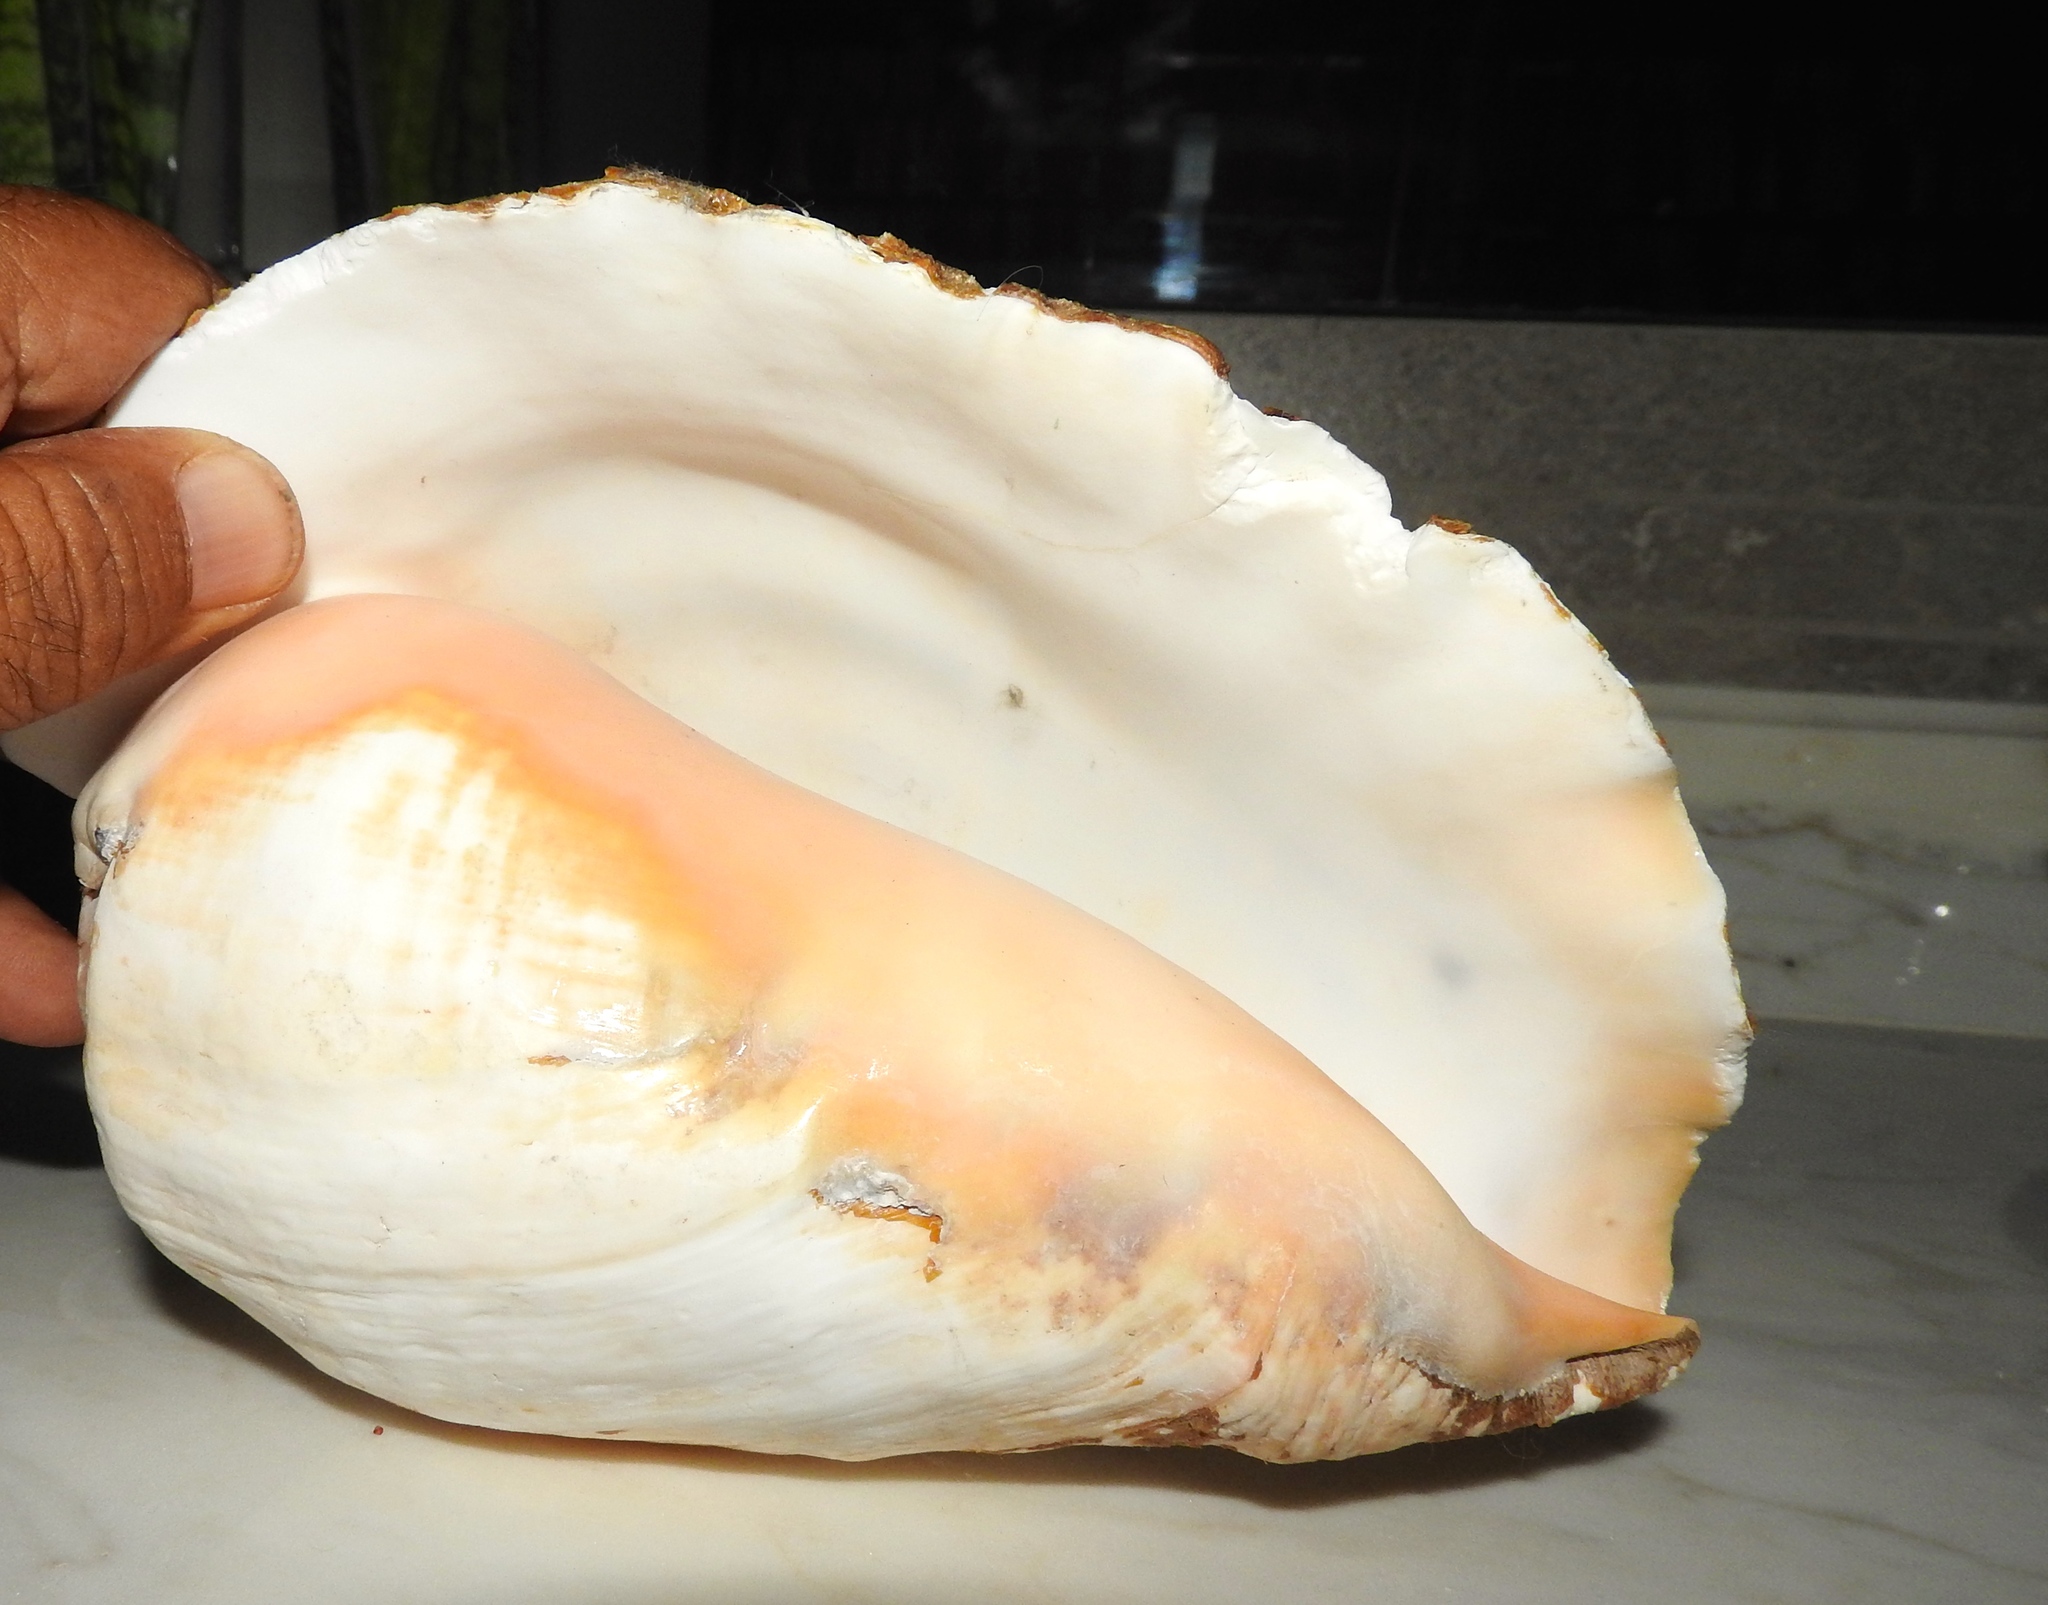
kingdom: Animalia
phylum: Mollusca
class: Gastropoda
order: Littorinimorpha
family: Strombidae
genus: Titanostrombus
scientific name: Titanostrombus galeatus
